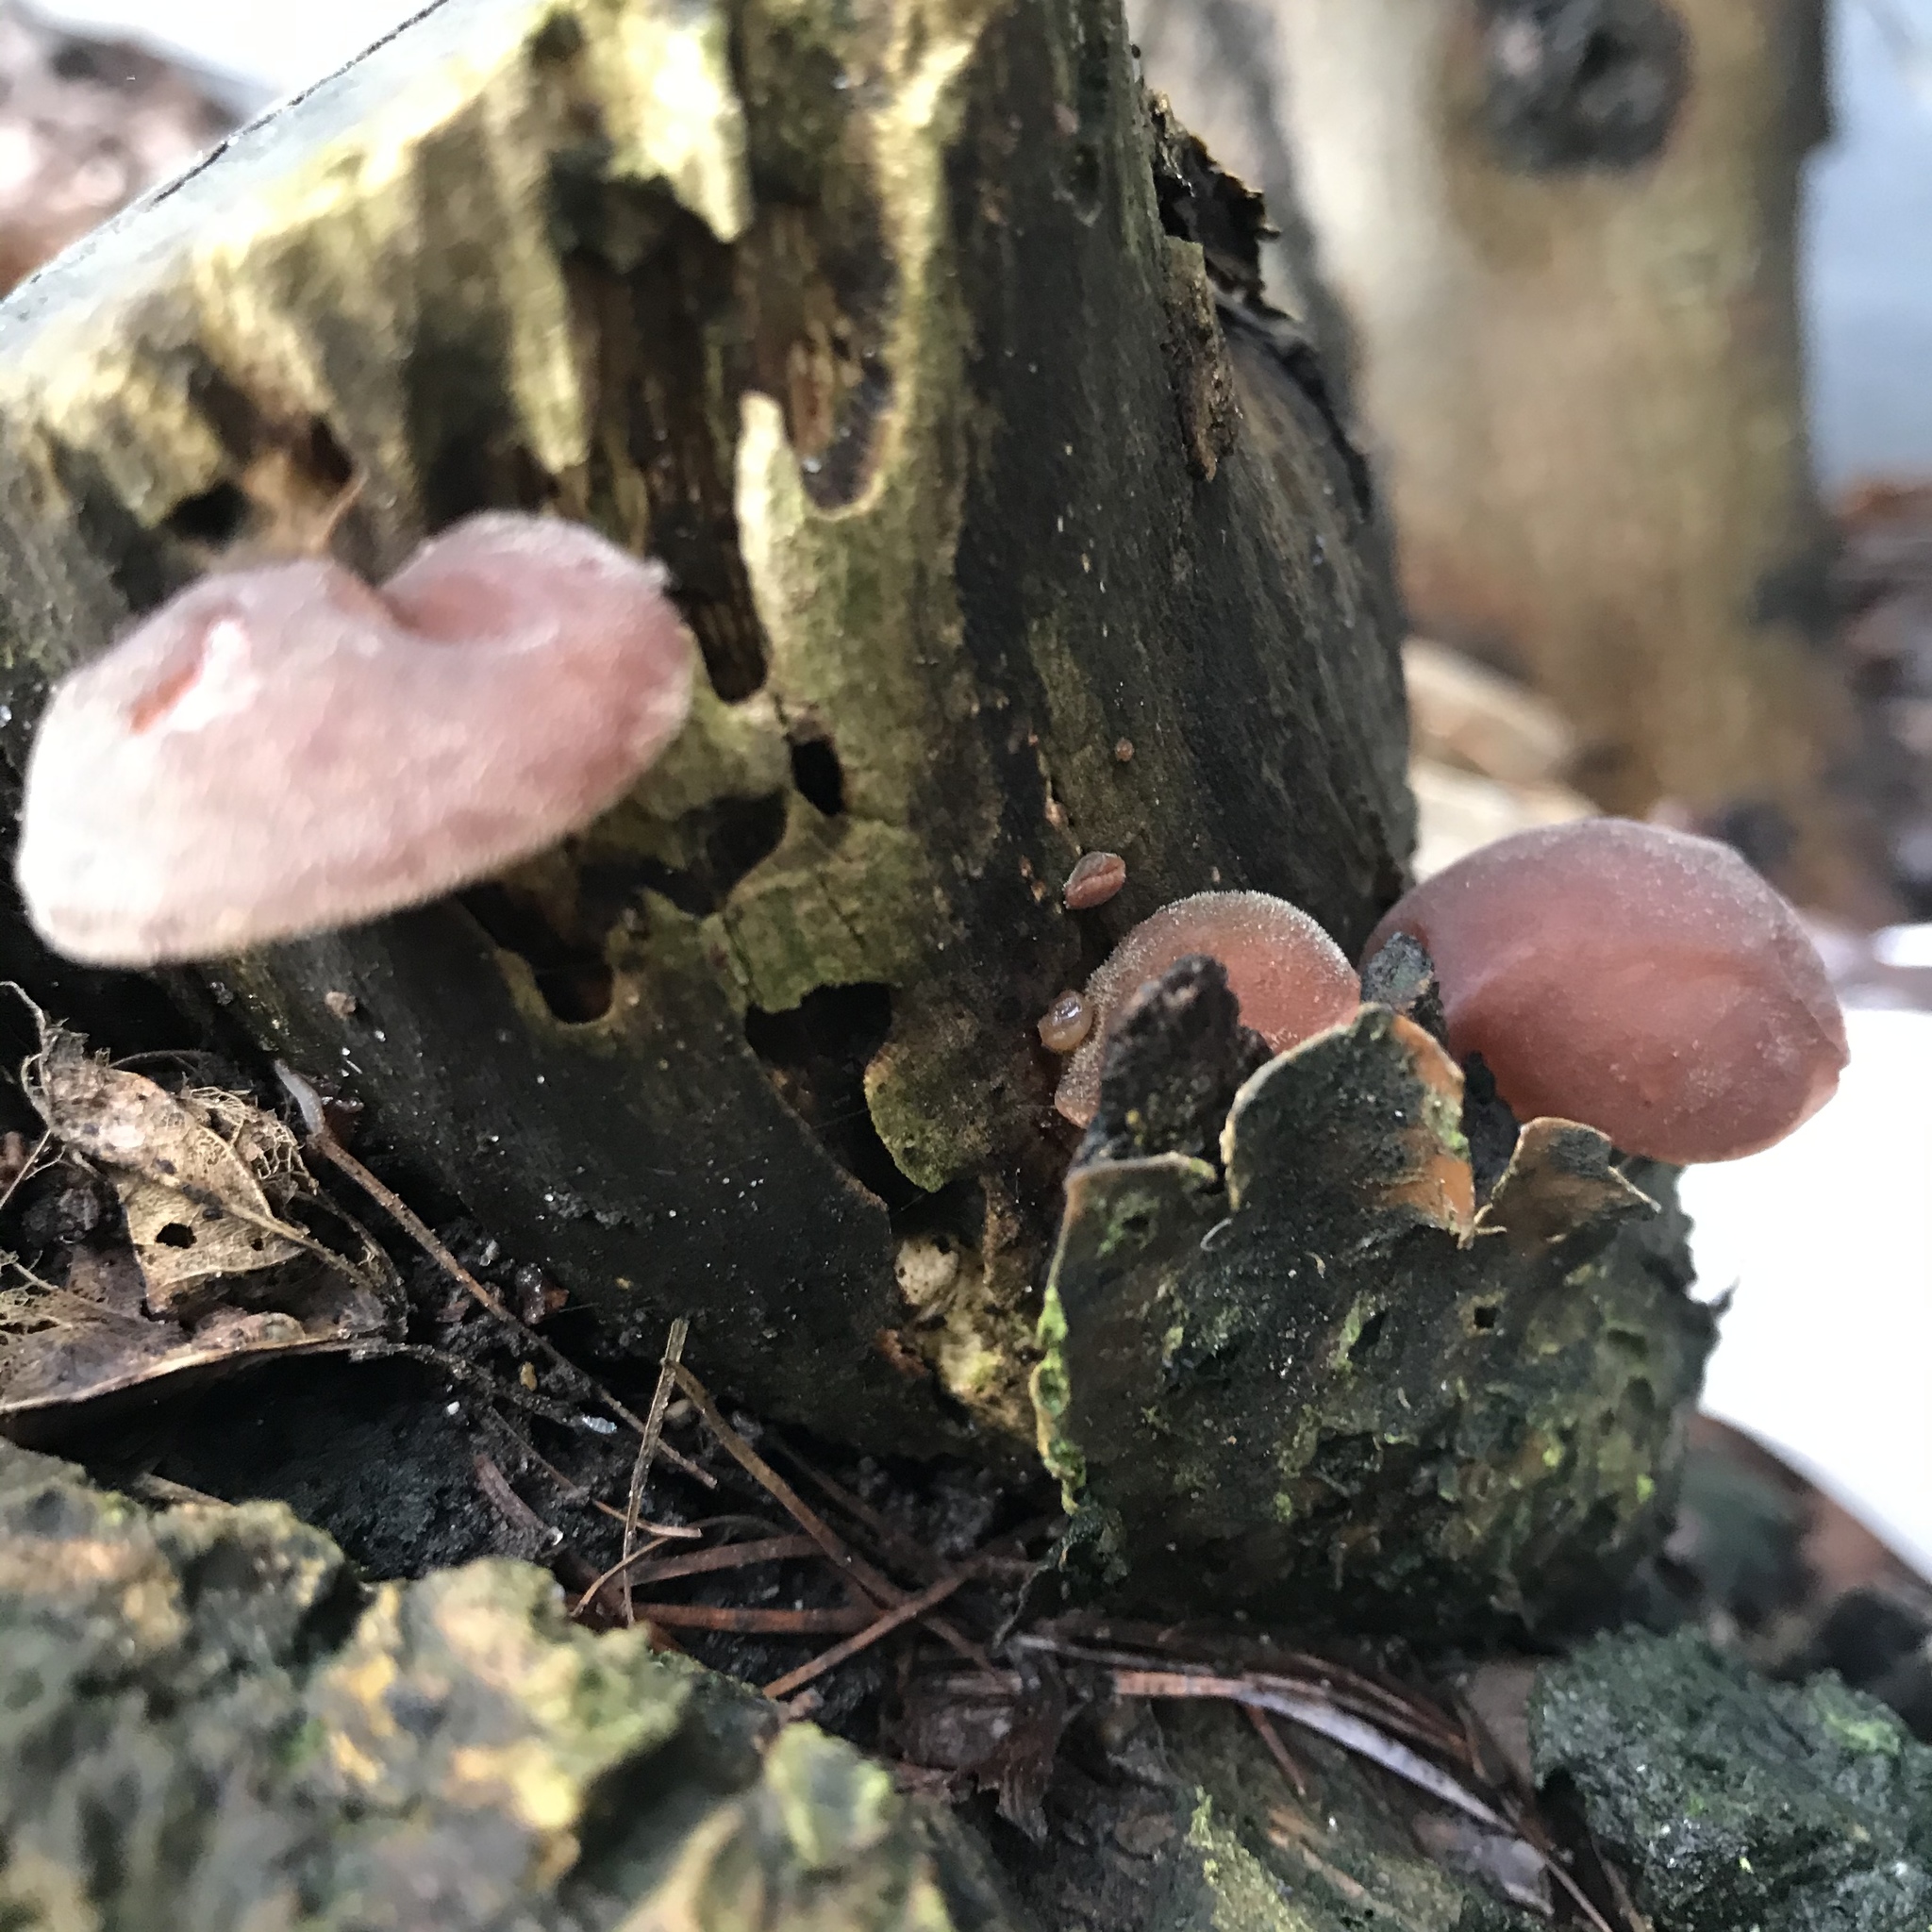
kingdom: Fungi
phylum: Basidiomycota
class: Agaricomycetes
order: Auriculariales
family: Auriculariaceae
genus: Auricularia
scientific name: Auricularia auricula-judae
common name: Jelly ear
